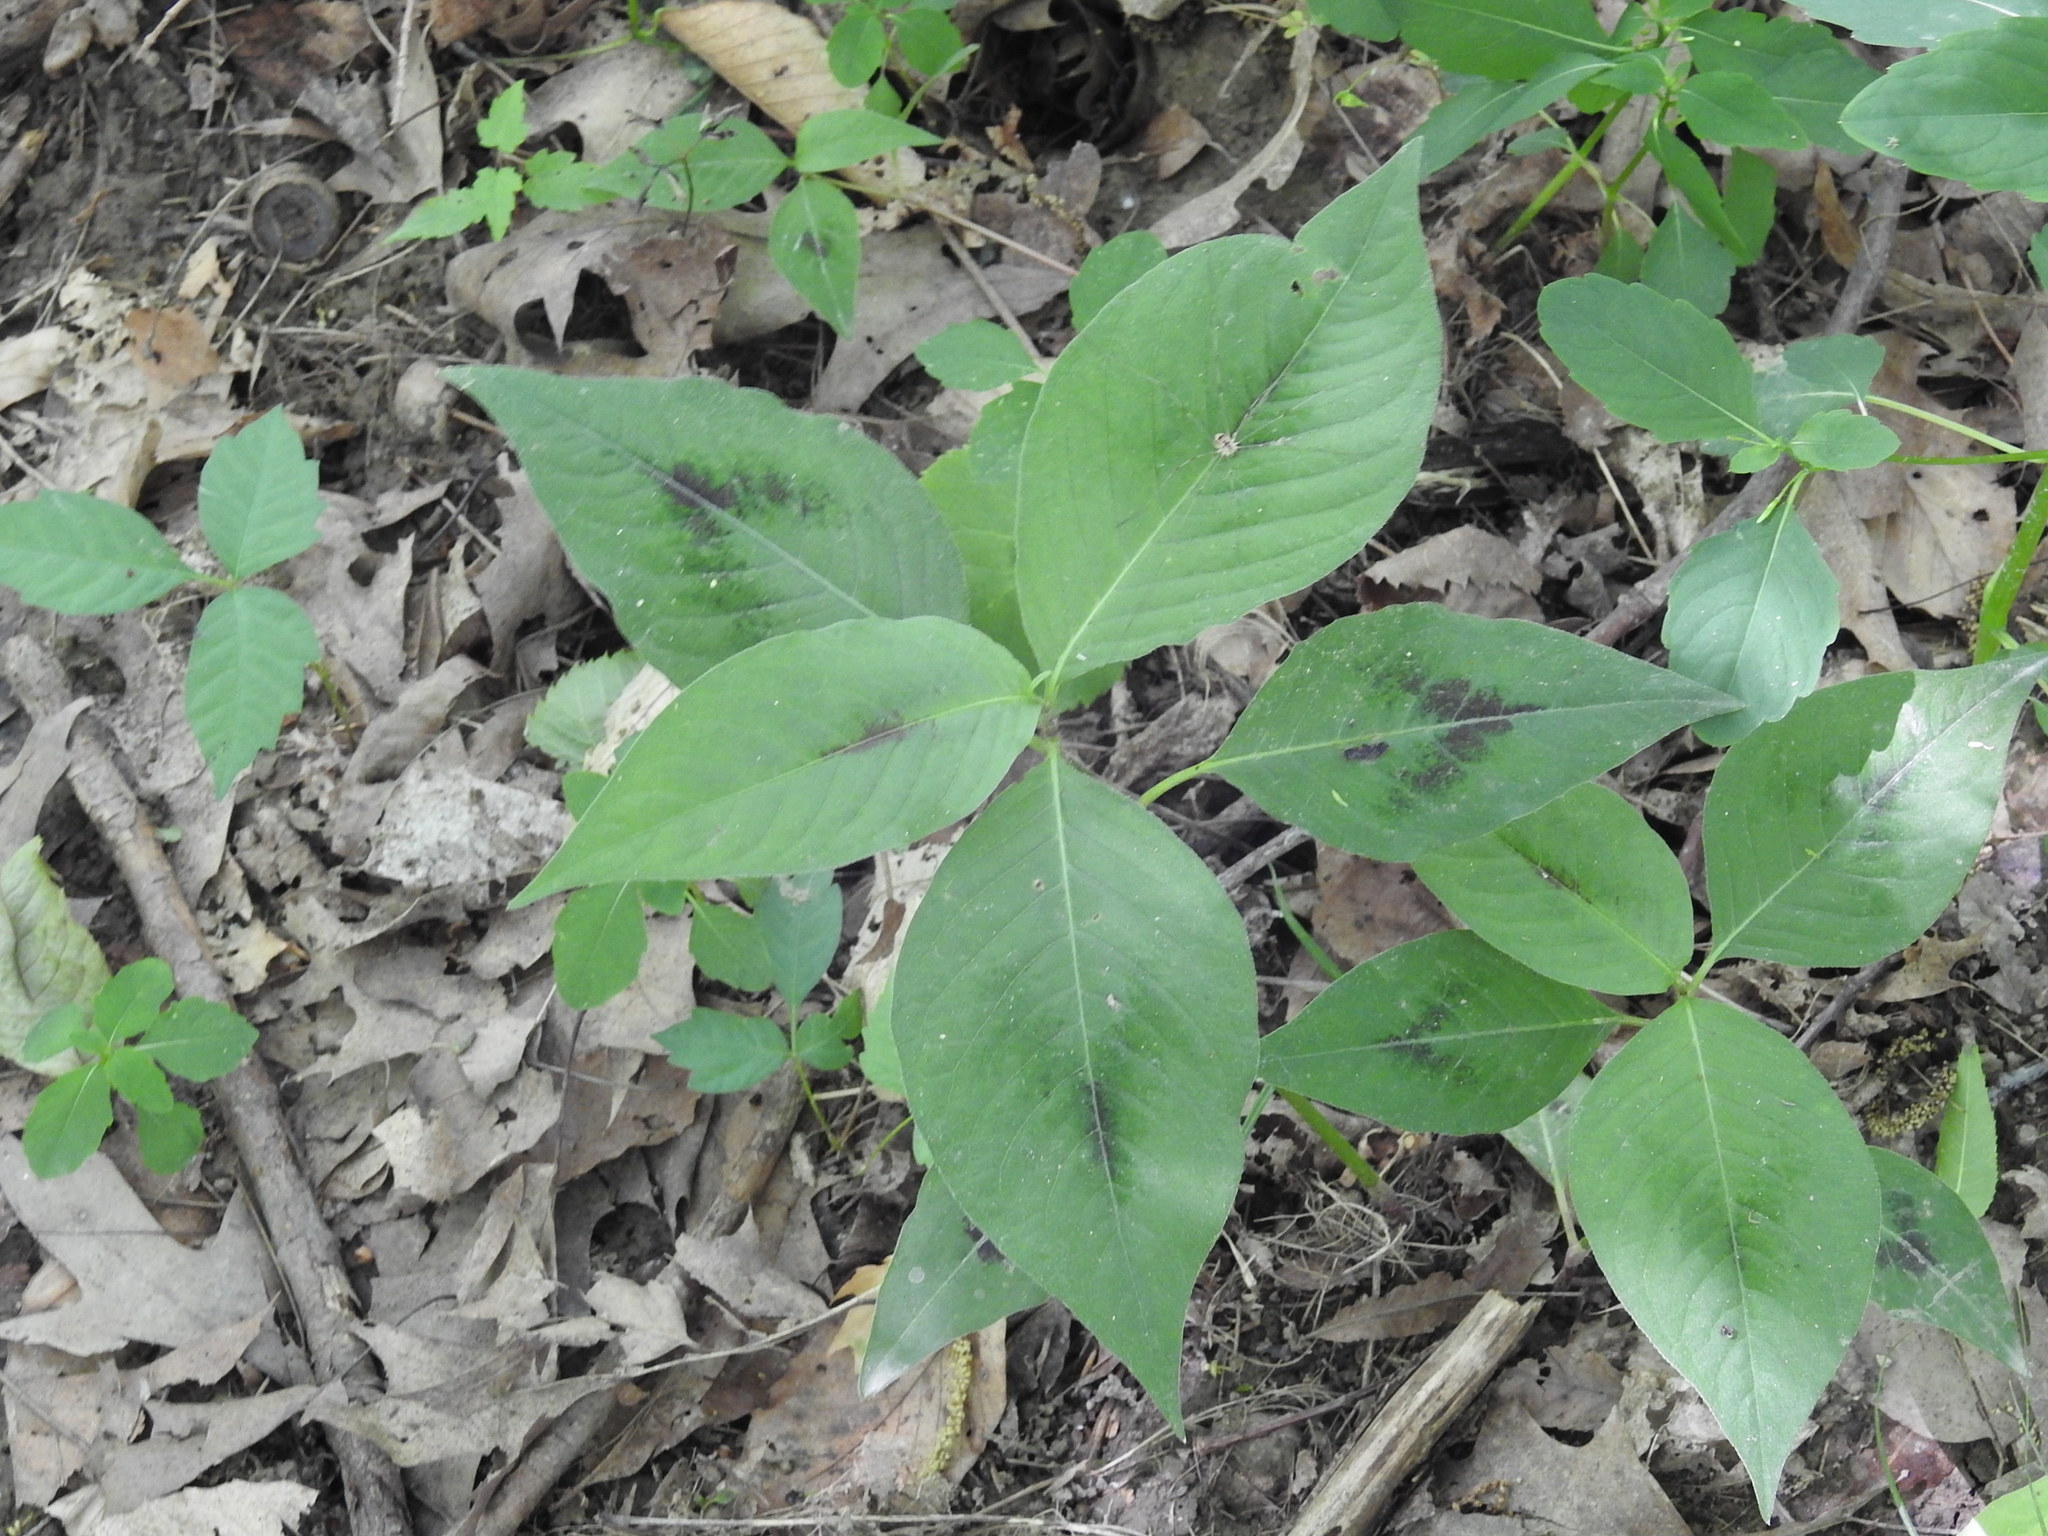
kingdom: Plantae
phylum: Tracheophyta
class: Magnoliopsida
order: Caryophyllales
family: Polygonaceae
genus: Persicaria
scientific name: Persicaria virginiana
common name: Jumpseed
